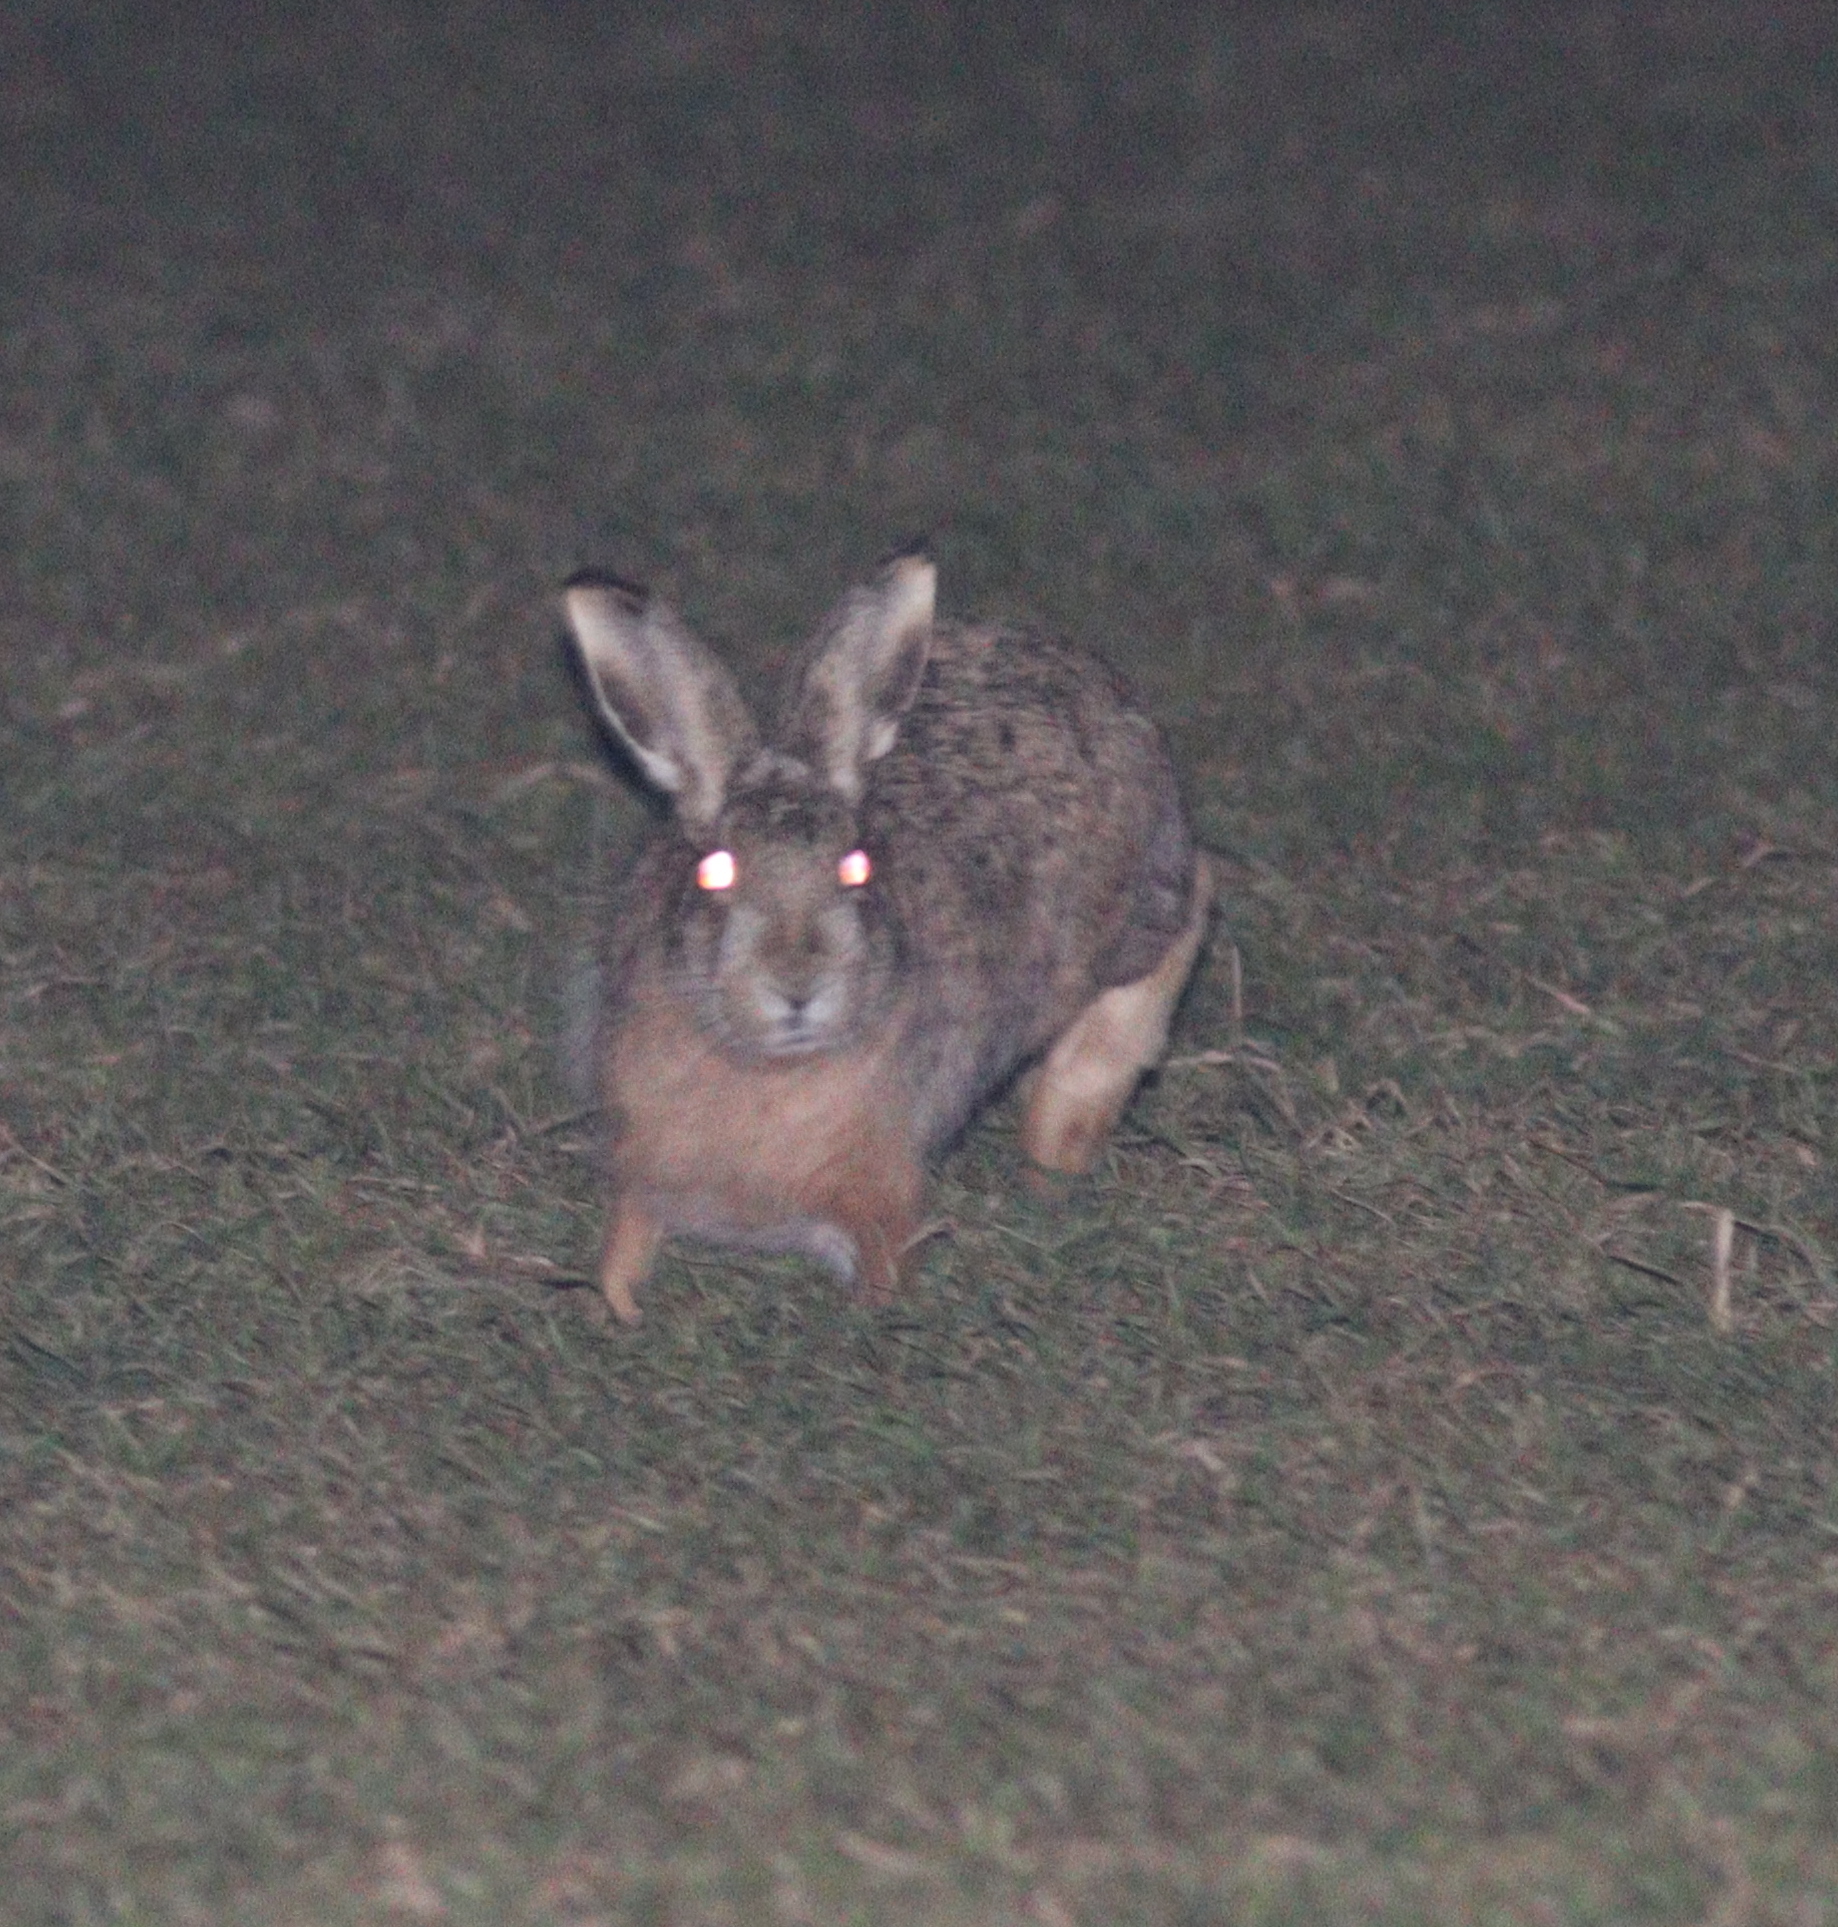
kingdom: Animalia
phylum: Chordata
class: Mammalia
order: Lagomorpha
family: Leporidae
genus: Lepus
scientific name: Lepus europaeus
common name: European hare
